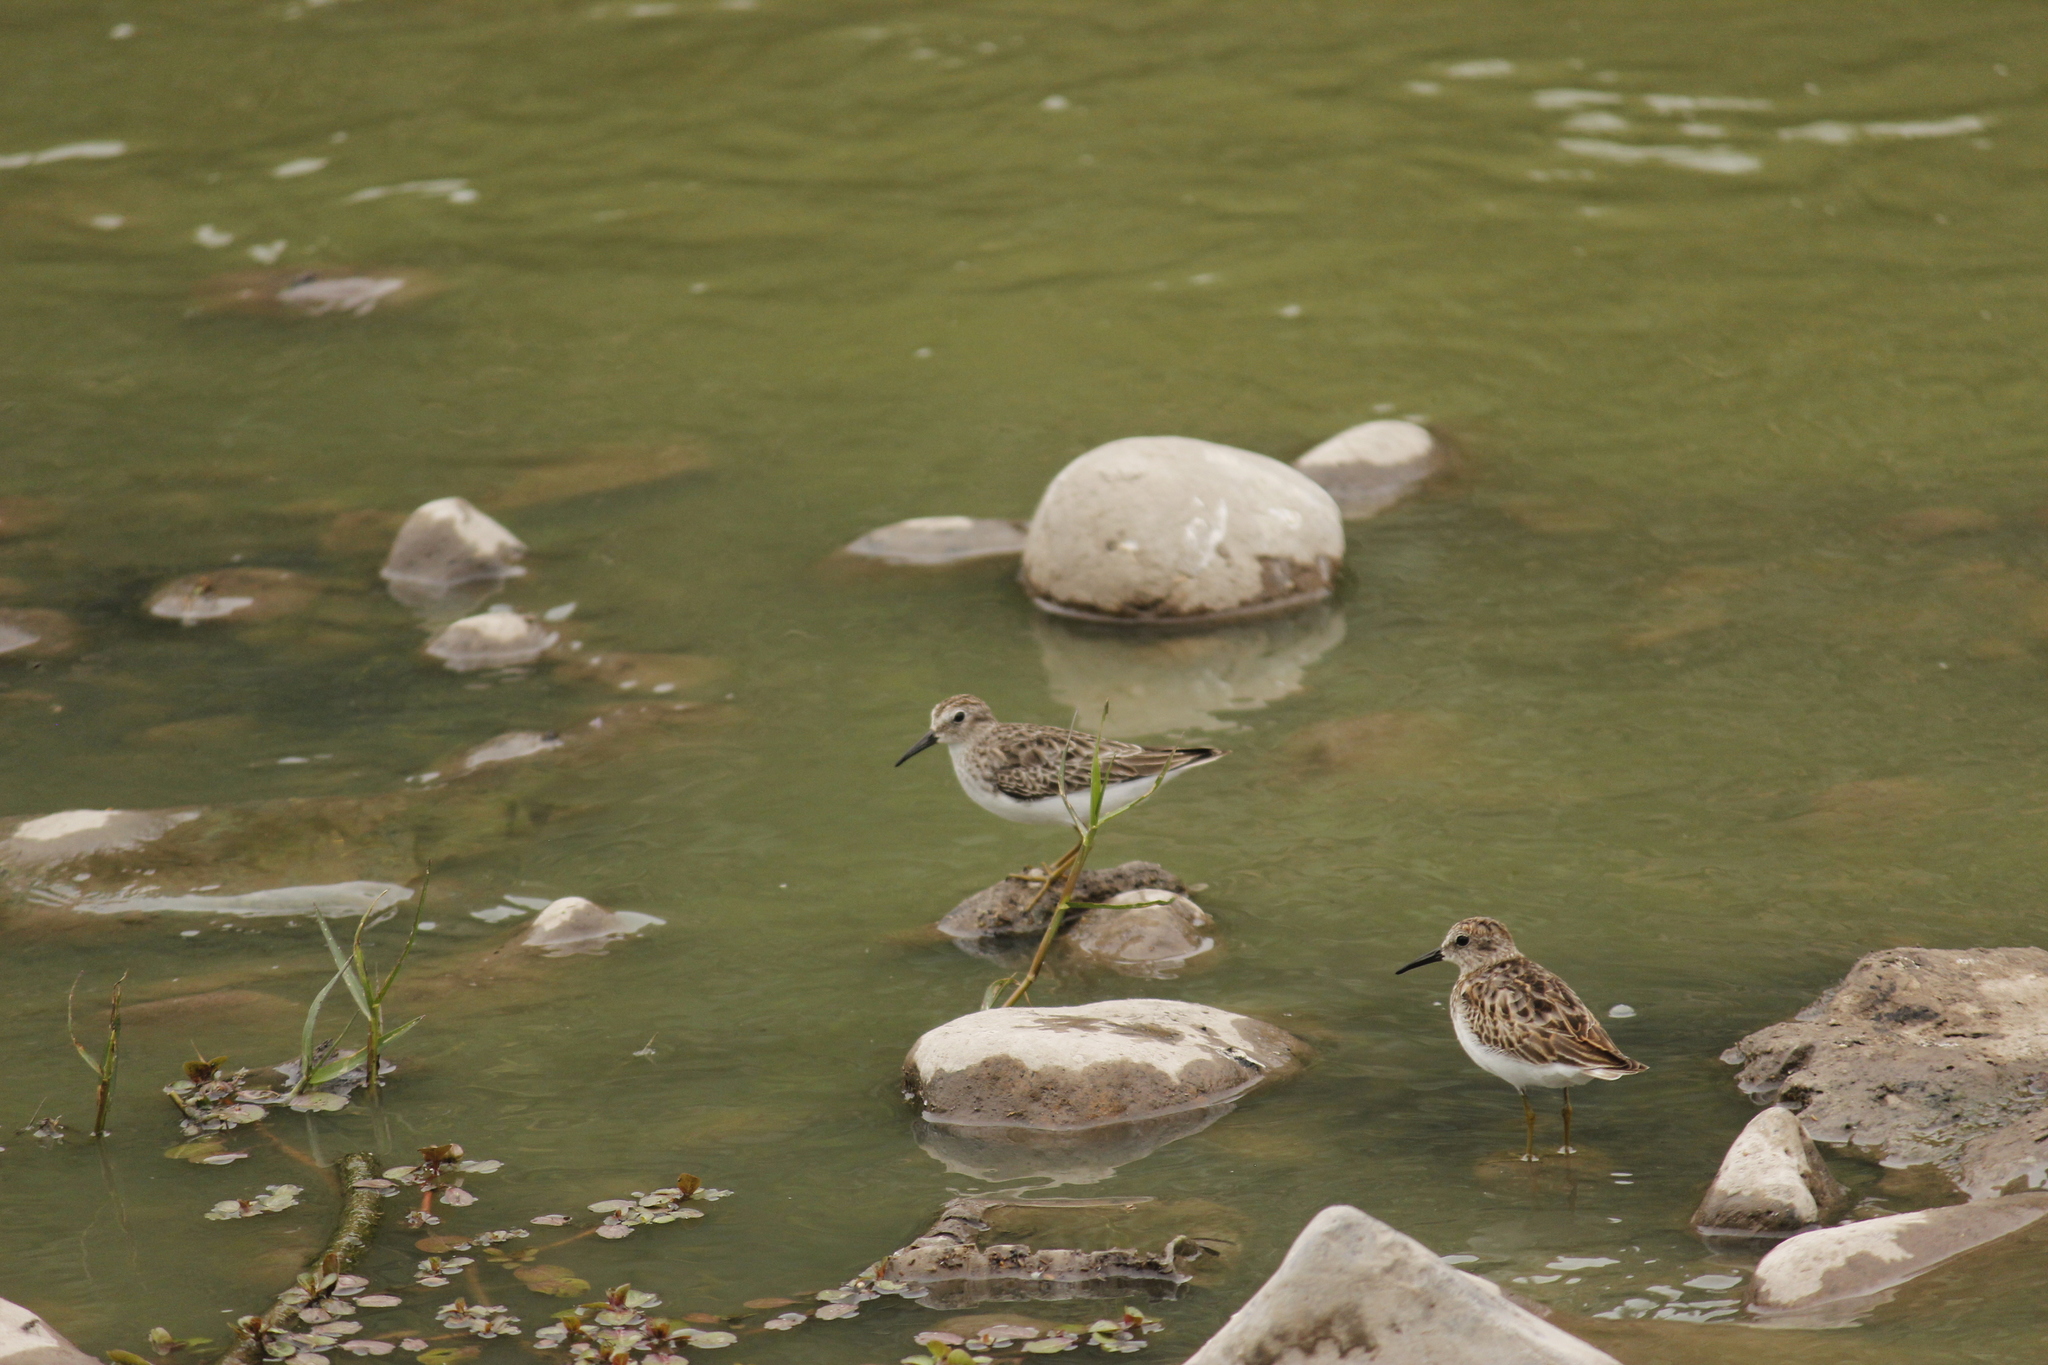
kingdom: Animalia
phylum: Chordata
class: Aves
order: Charadriiformes
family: Scolopacidae
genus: Calidris
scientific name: Calidris minutilla
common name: Least sandpiper
